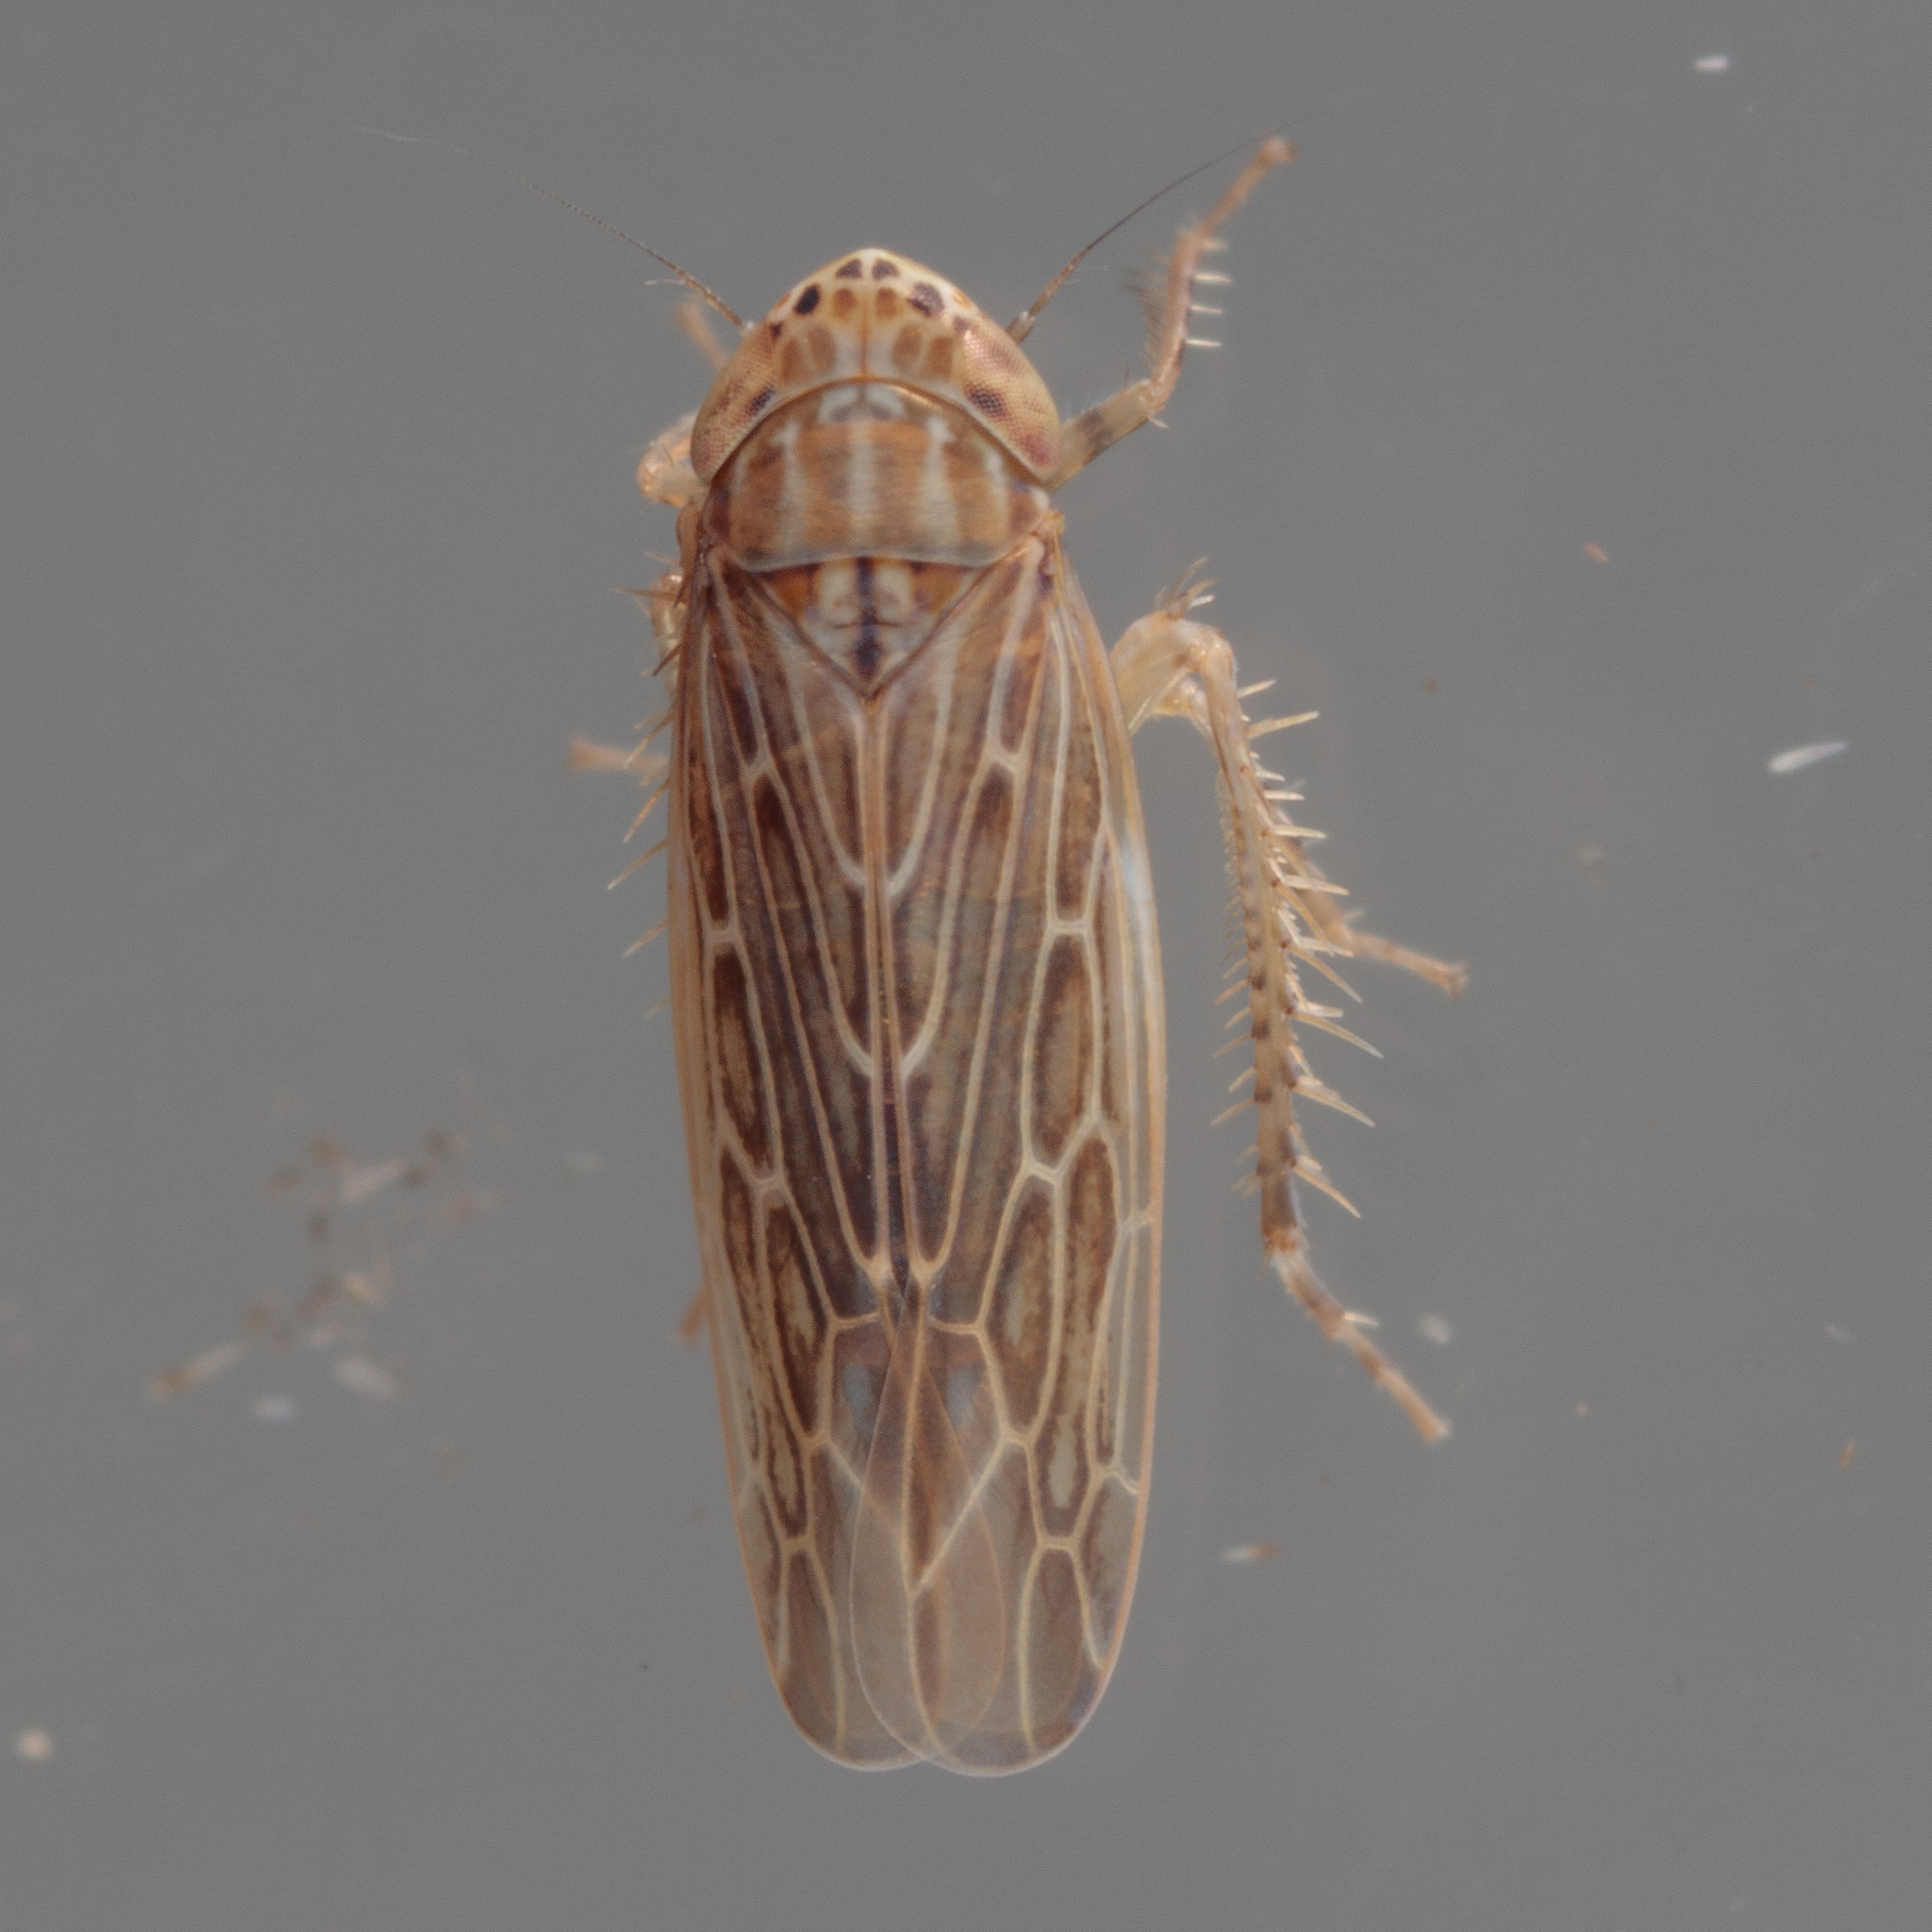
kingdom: Animalia
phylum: Arthropoda
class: Insecta
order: Hemiptera
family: Cicadellidae
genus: Graminella
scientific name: Graminella sonora
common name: Lesser lawn leafhopper
